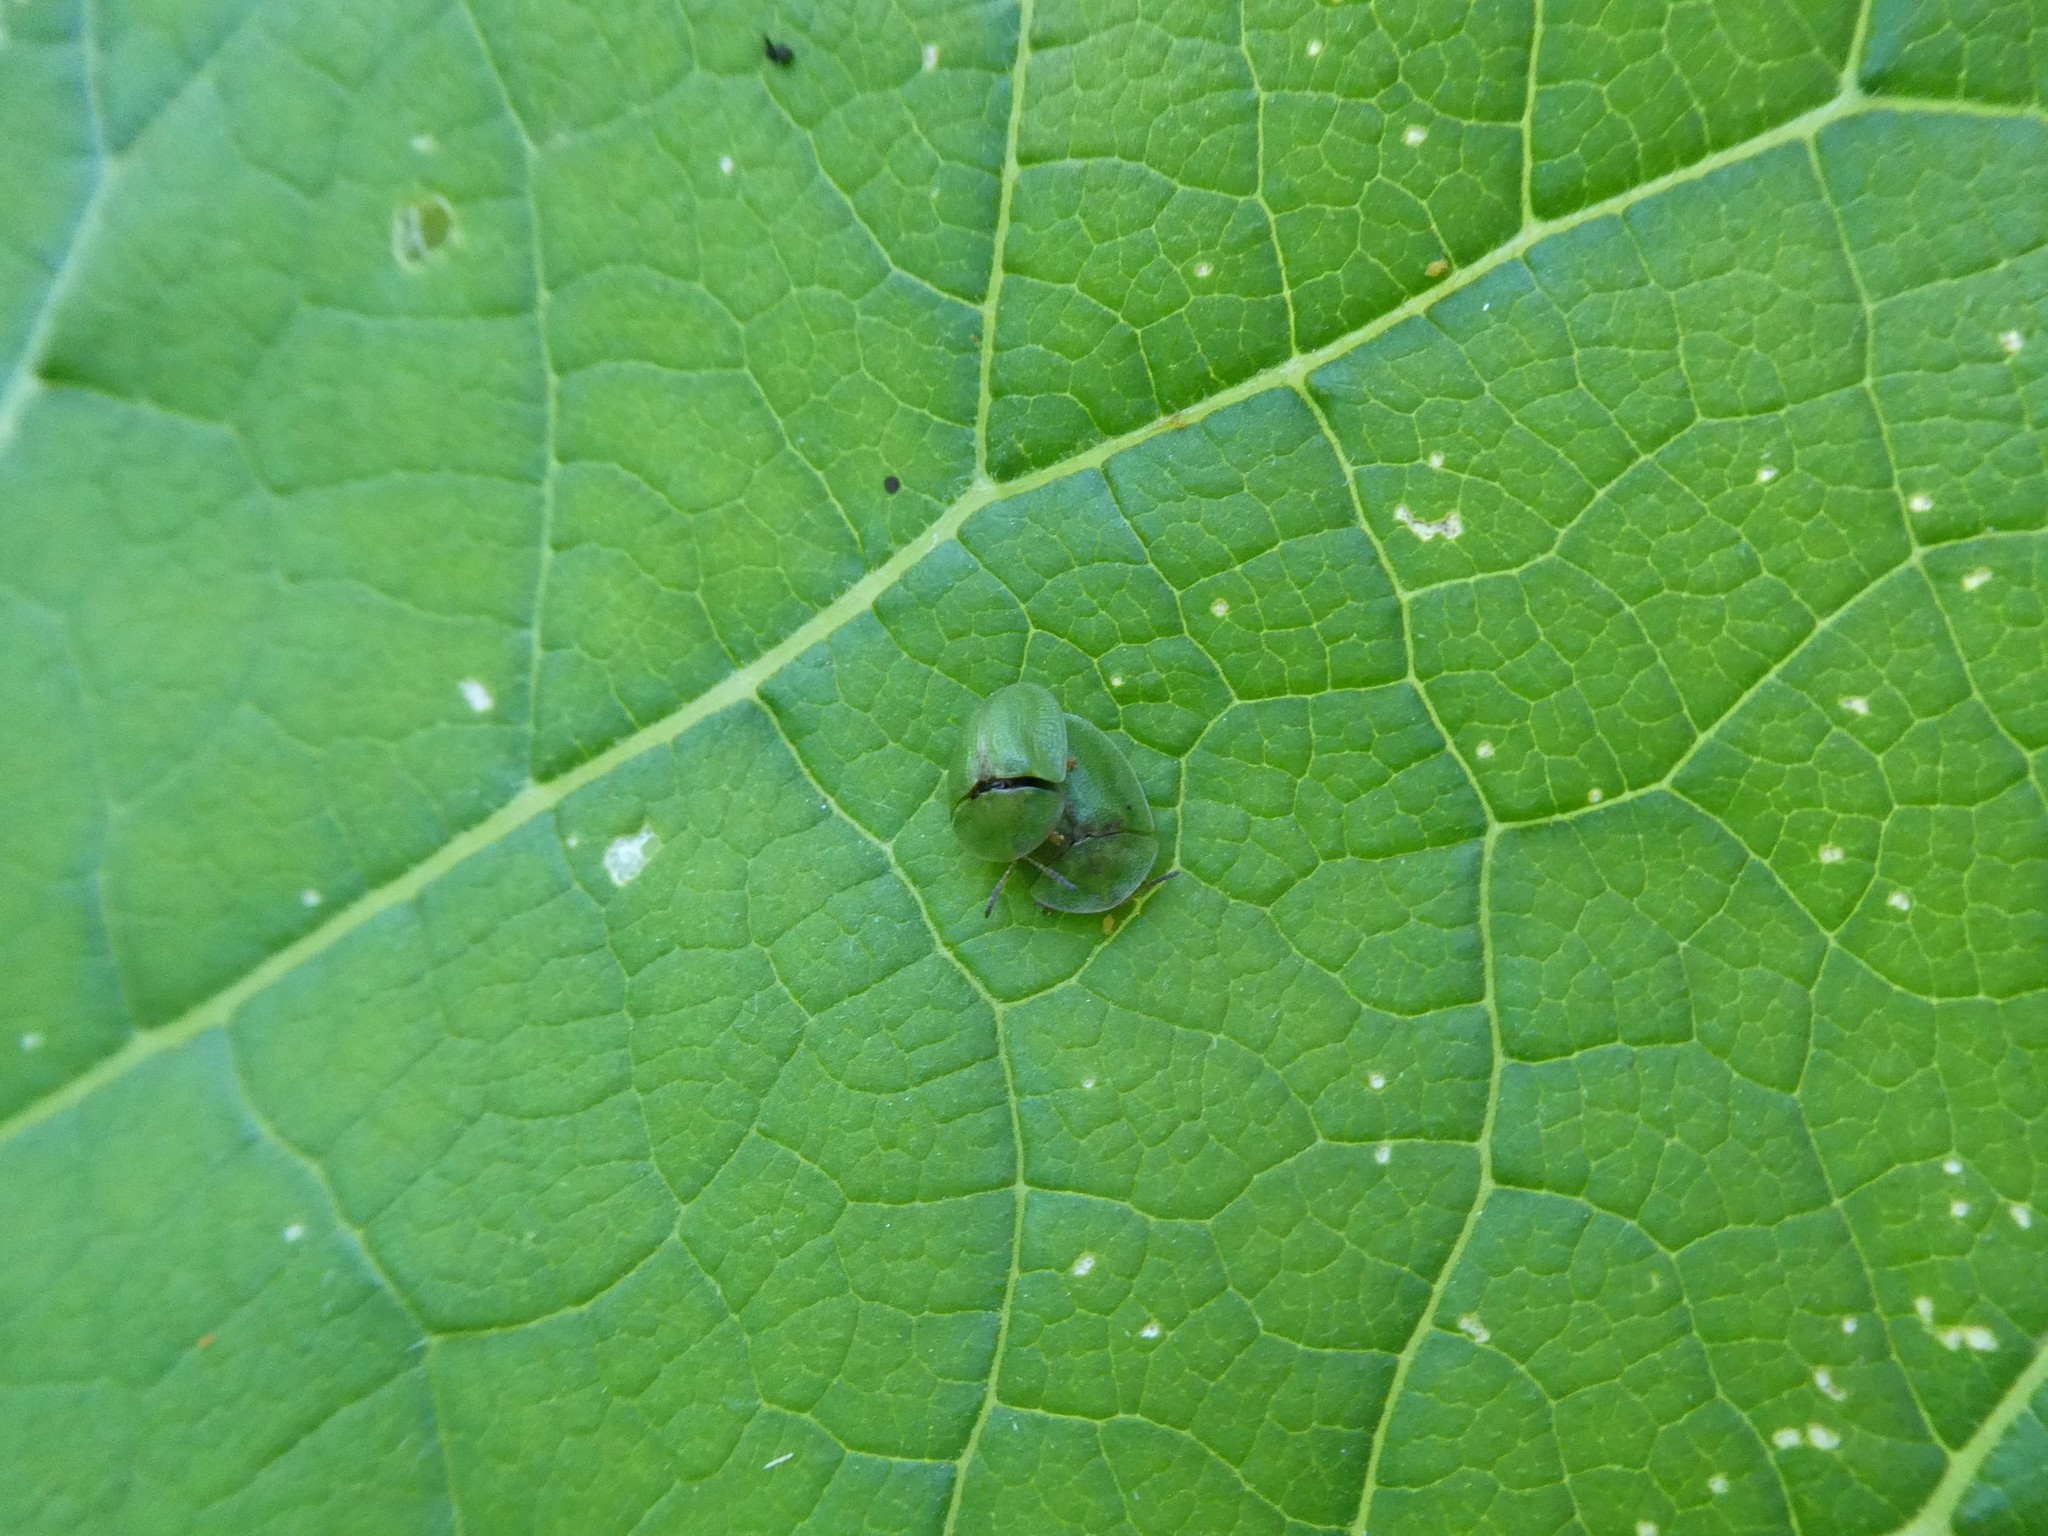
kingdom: Animalia
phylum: Arthropoda
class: Insecta
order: Coleoptera
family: Chrysomelidae
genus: Cassida
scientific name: Cassida rubiginosa
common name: Thistle tortoise beetle
